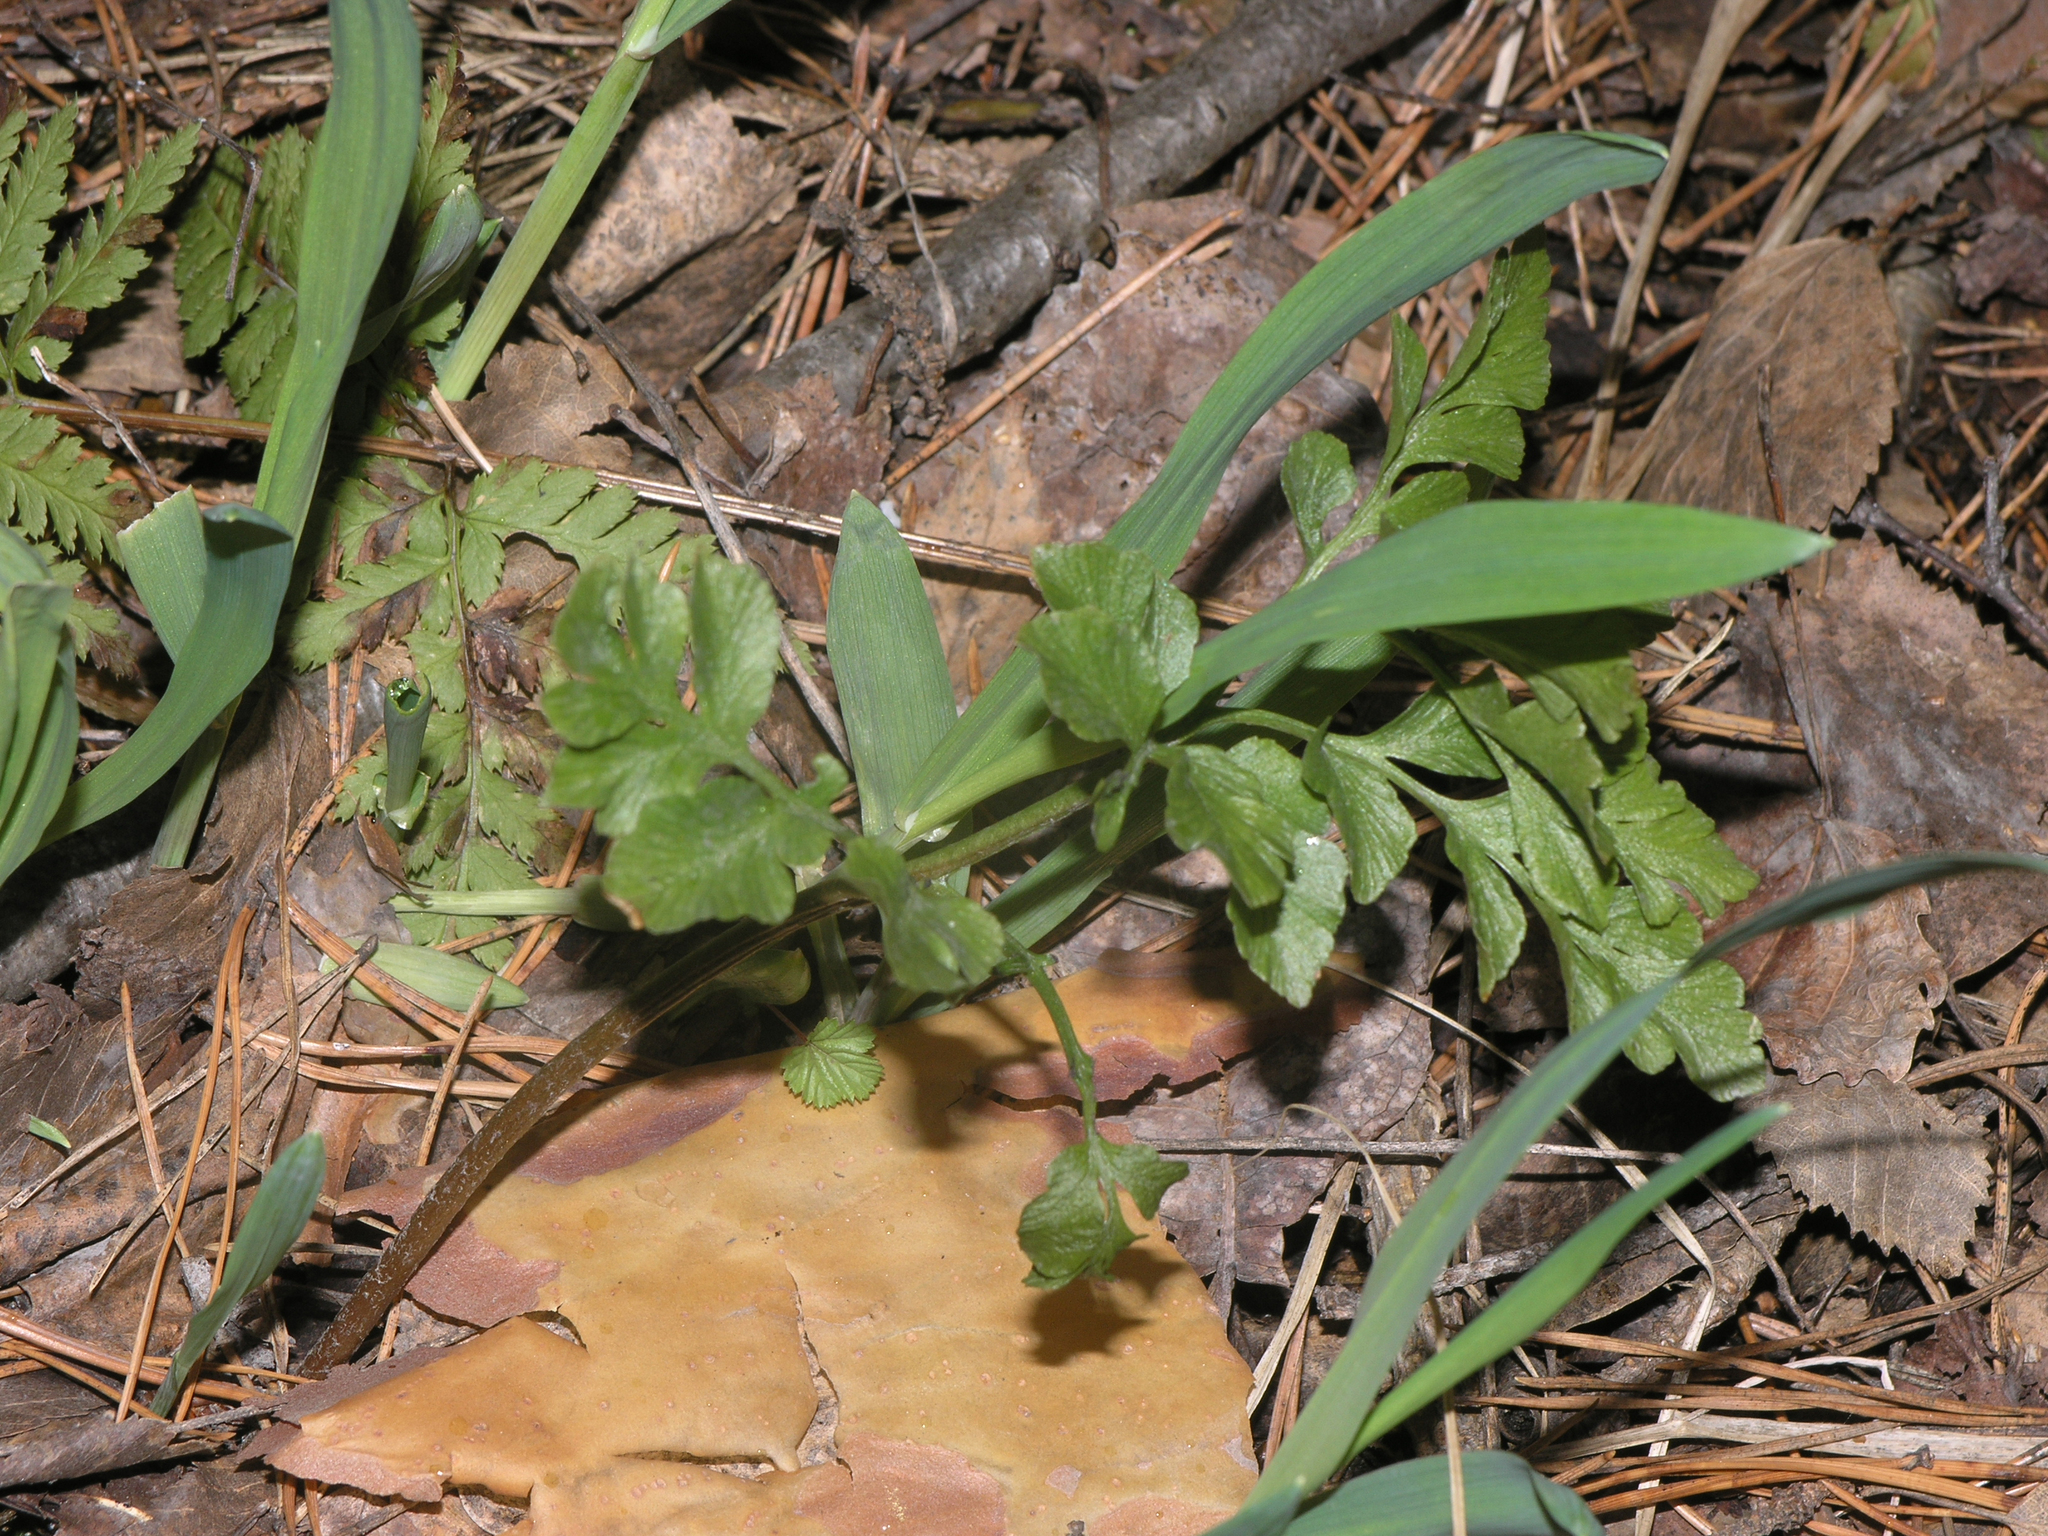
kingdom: Plantae
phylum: Tracheophyta
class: Polypodiopsida
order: Ophioglossales
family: Ophioglossaceae
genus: Sceptridium
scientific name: Sceptridium multifidum
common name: Leathery grape fern
